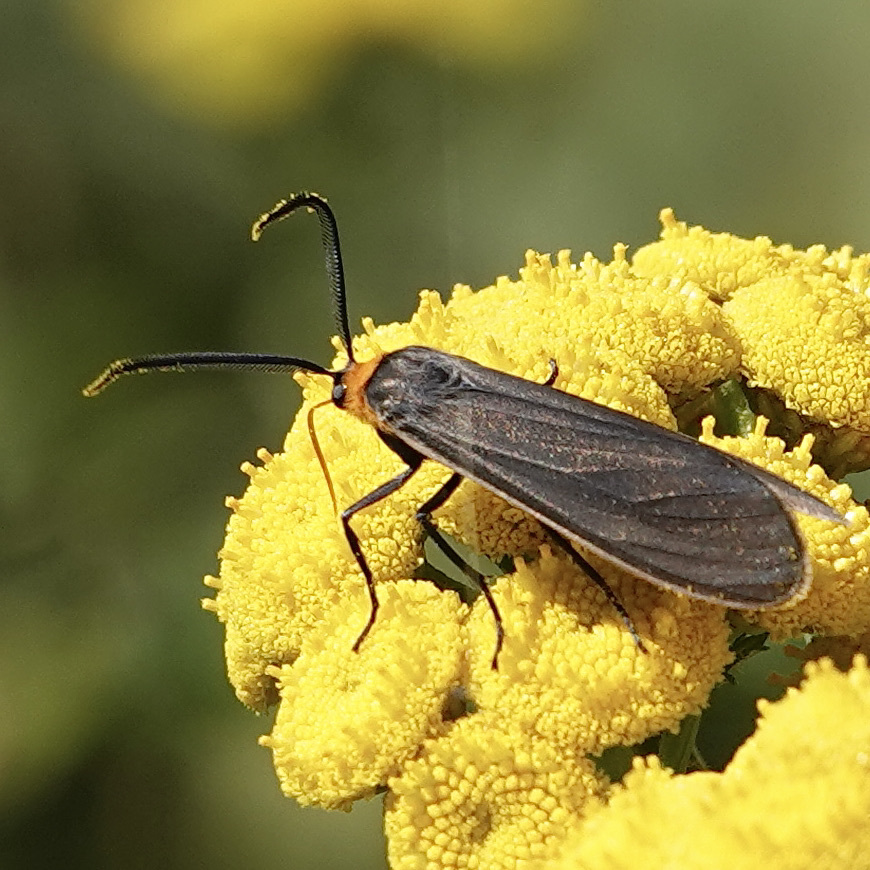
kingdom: Animalia
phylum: Arthropoda
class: Insecta
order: Lepidoptera
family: Erebidae
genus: Cisseps
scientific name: Cisseps fulvicollis
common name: Yellow-collared scape moth
